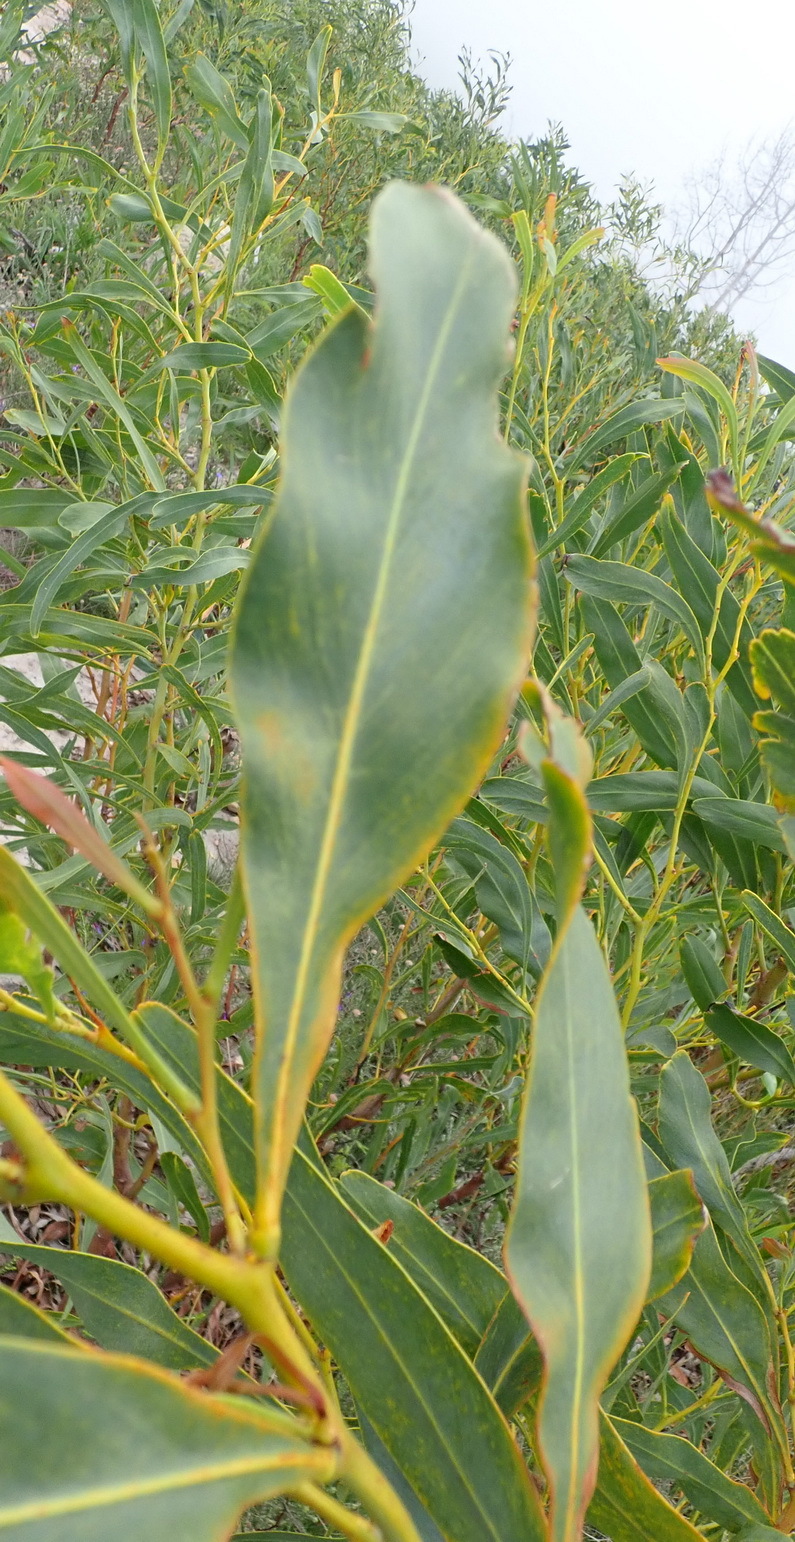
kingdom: Plantae
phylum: Tracheophyta
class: Magnoliopsida
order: Fabales
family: Fabaceae
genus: Acacia
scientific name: Acacia saligna
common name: Orange wattle
